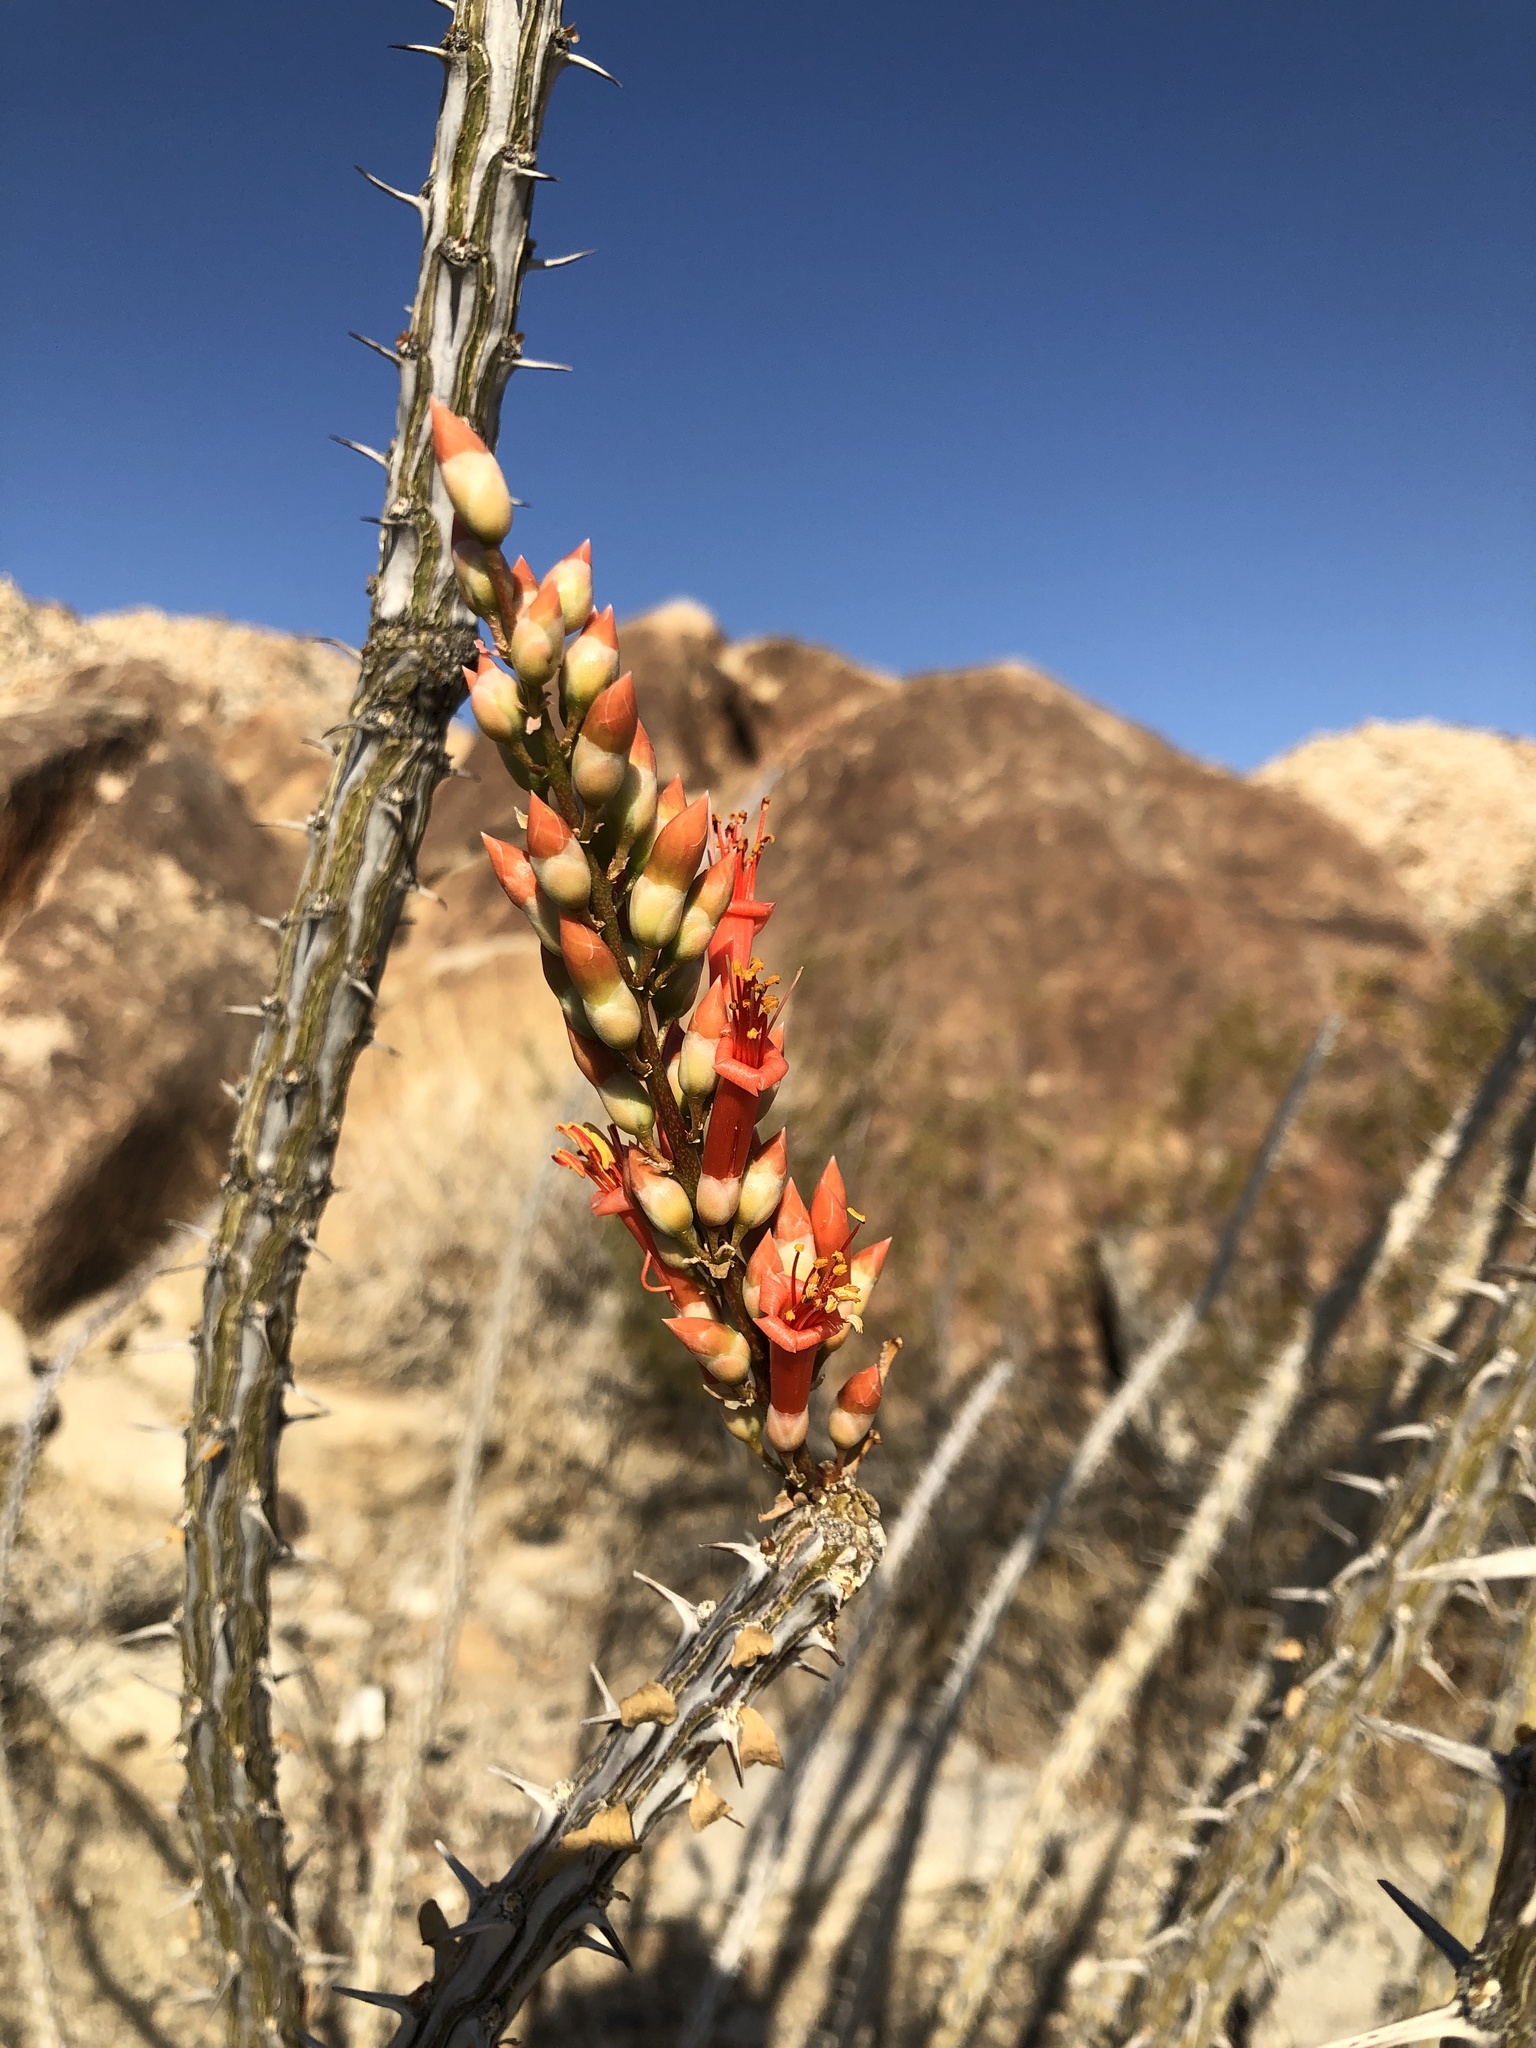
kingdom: Plantae
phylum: Tracheophyta
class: Magnoliopsida
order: Ericales
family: Fouquieriaceae
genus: Fouquieria
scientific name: Fouquieria splendens
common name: Vine-cactus
